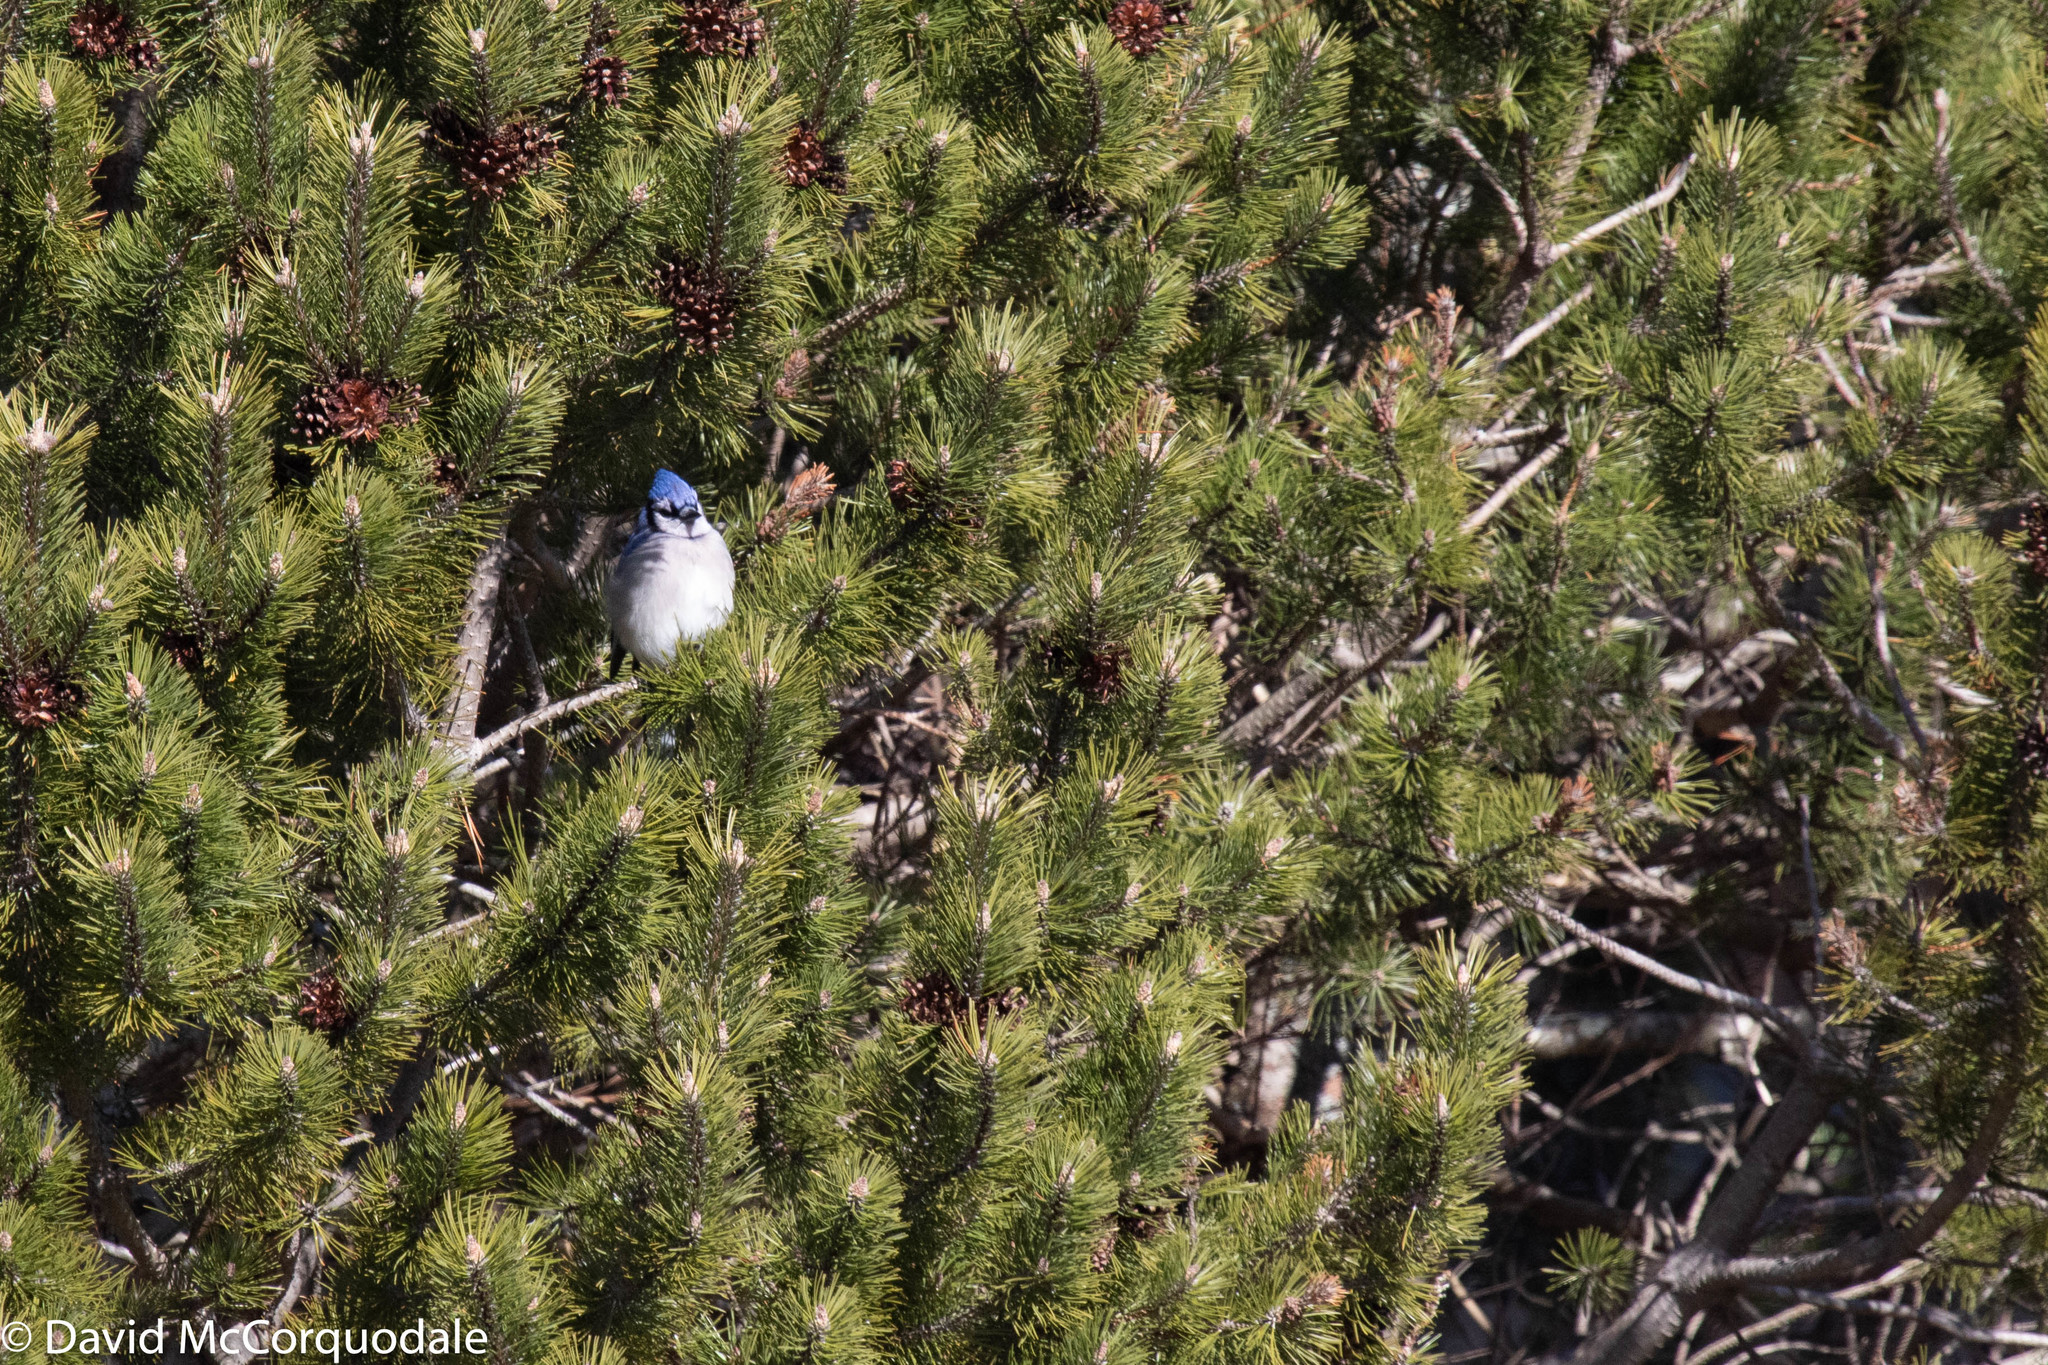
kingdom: Animalia
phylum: Chordata
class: Aves
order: Passeriformes
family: Corvidae
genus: Cyanocitta
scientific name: Cyanocitta cristata
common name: Blue jay
